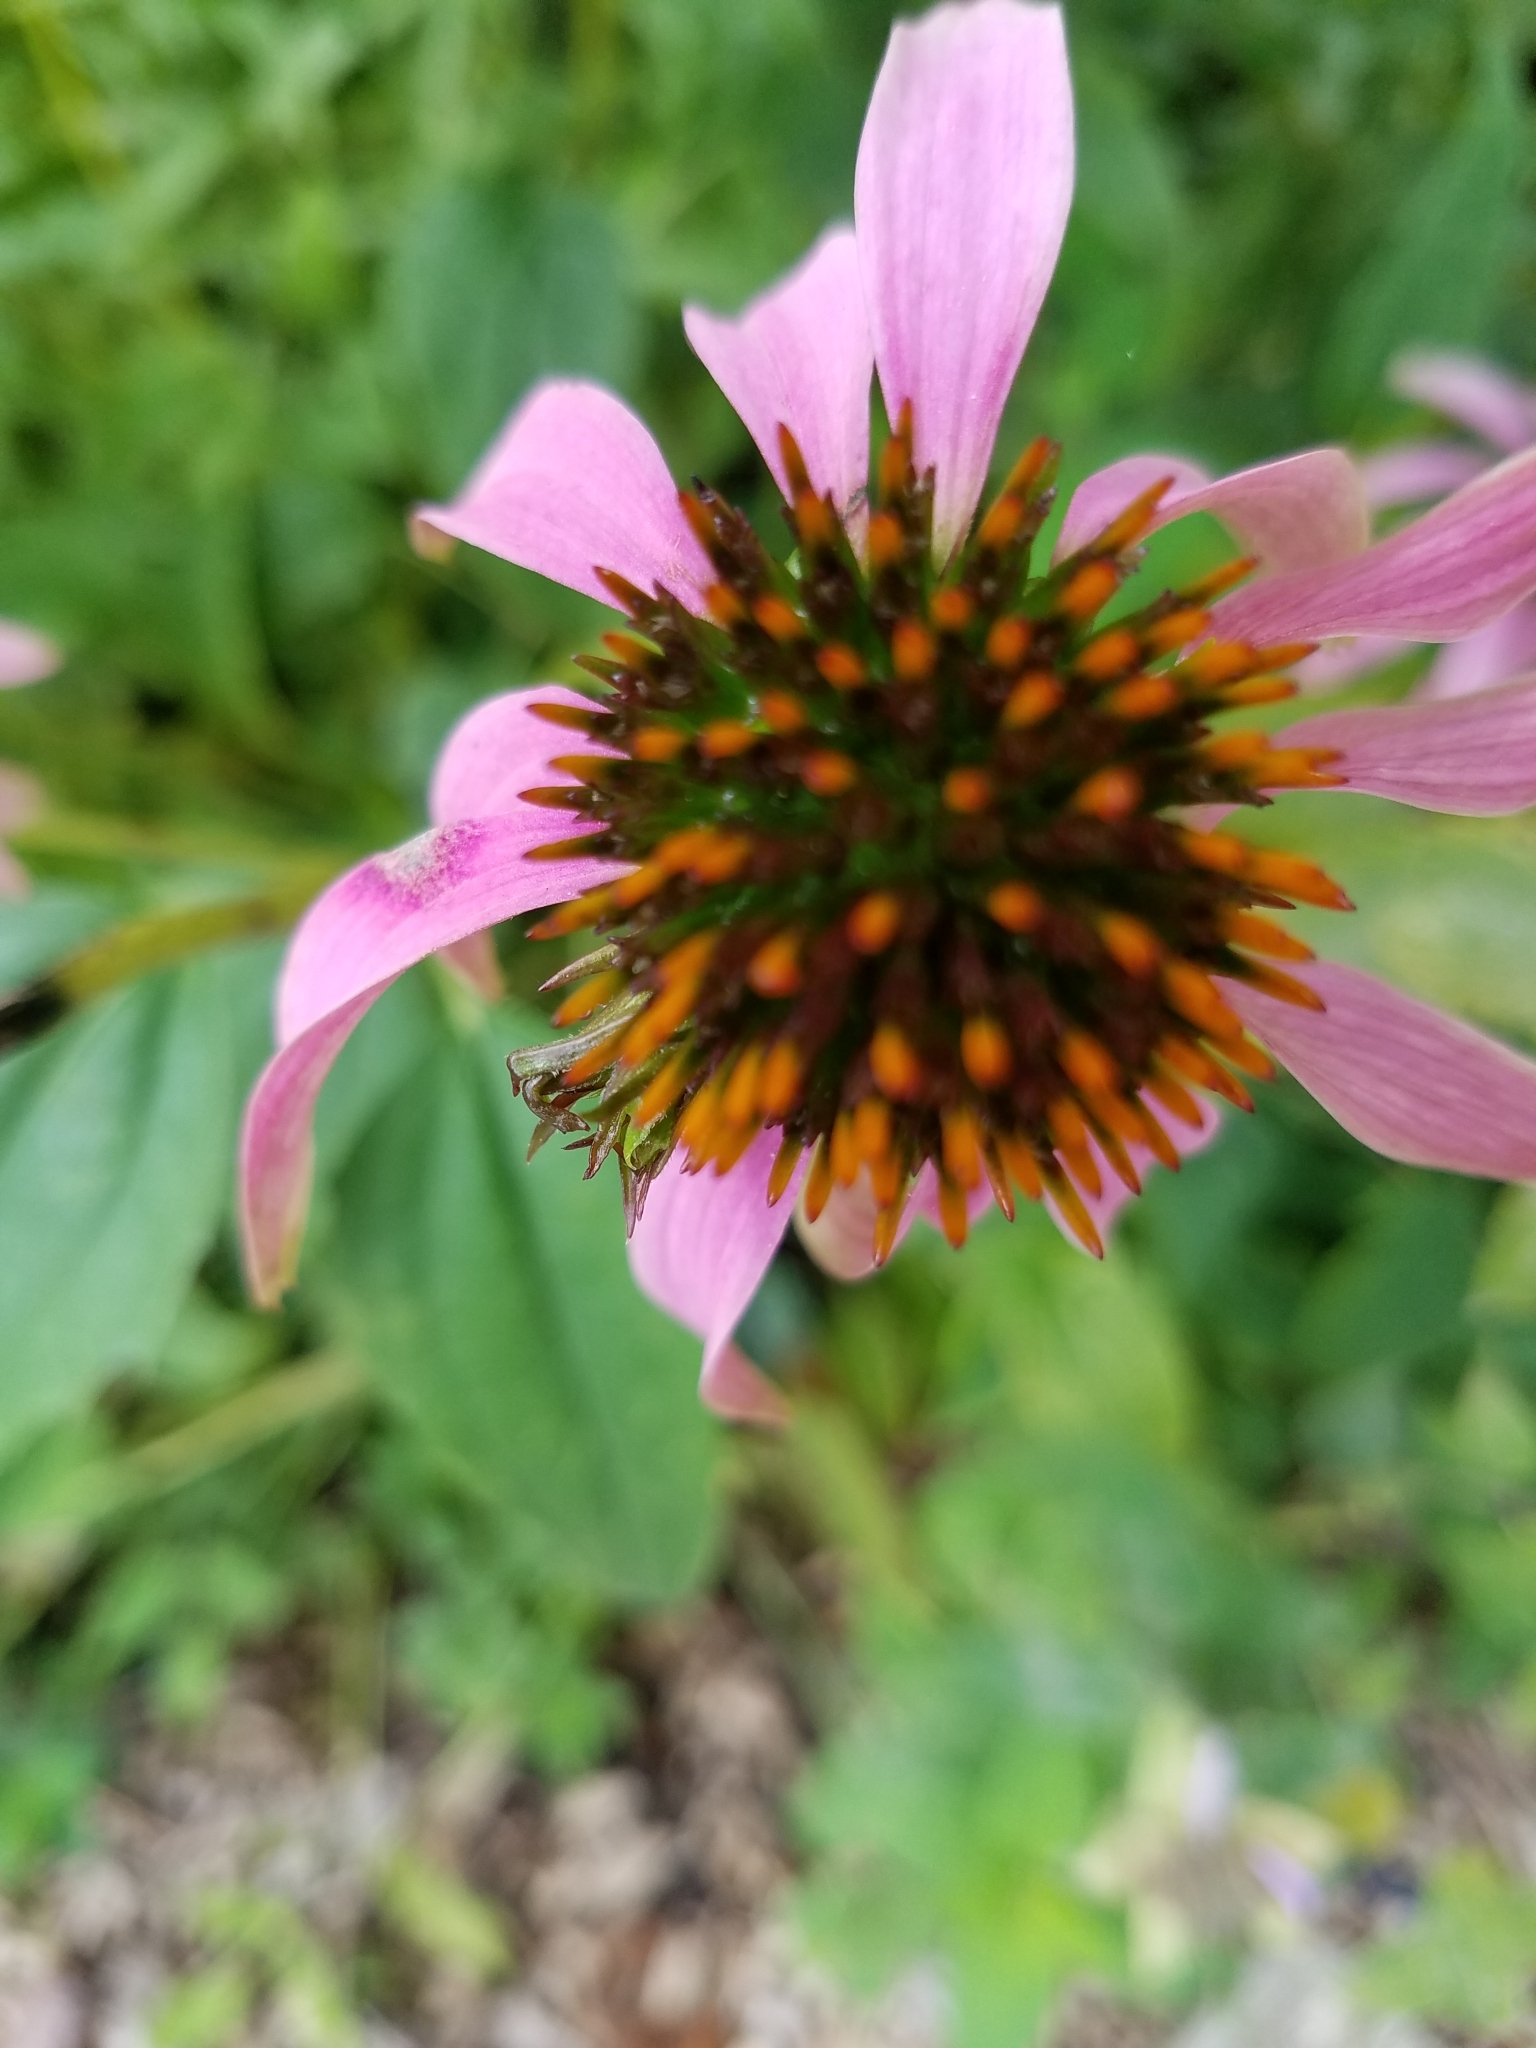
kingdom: Plantae
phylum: Tracheophyta
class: Magnoliopsida
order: Asterales
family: Asteraceae
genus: Echinacea
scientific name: Echinacea purpurea
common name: Broad-leaved purple coneflower
